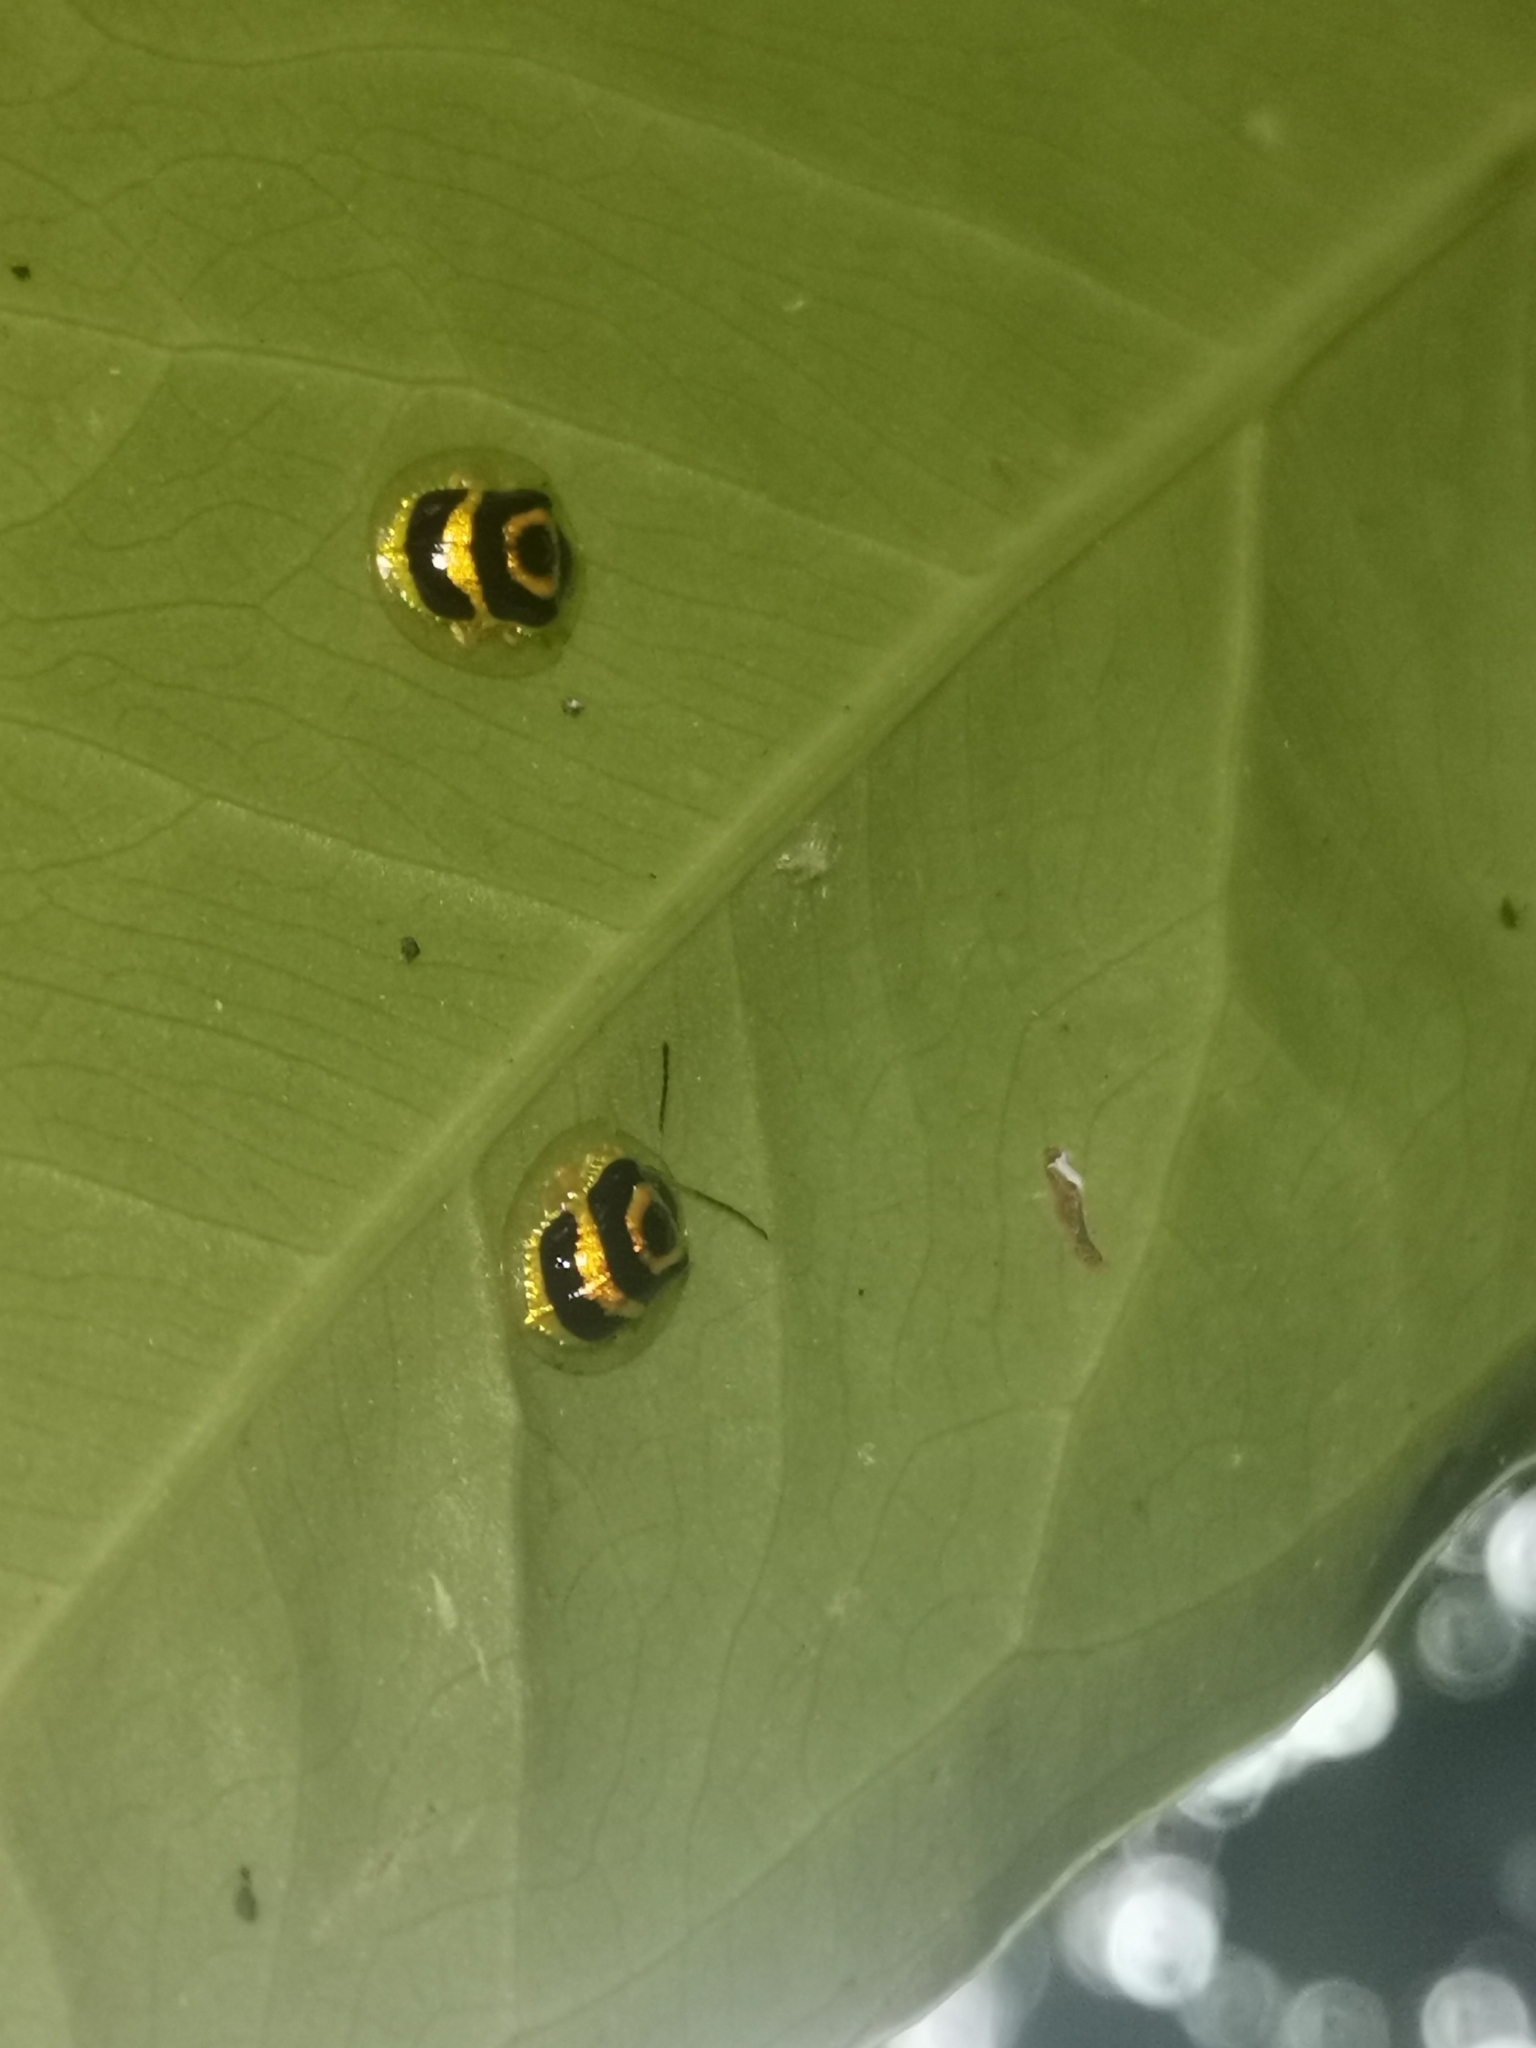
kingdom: Animalia
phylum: Arthropoda
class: Insecta
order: Coleoptera
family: Chrysomelidae
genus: Ischnocodia
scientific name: Ischnocodia annulus
